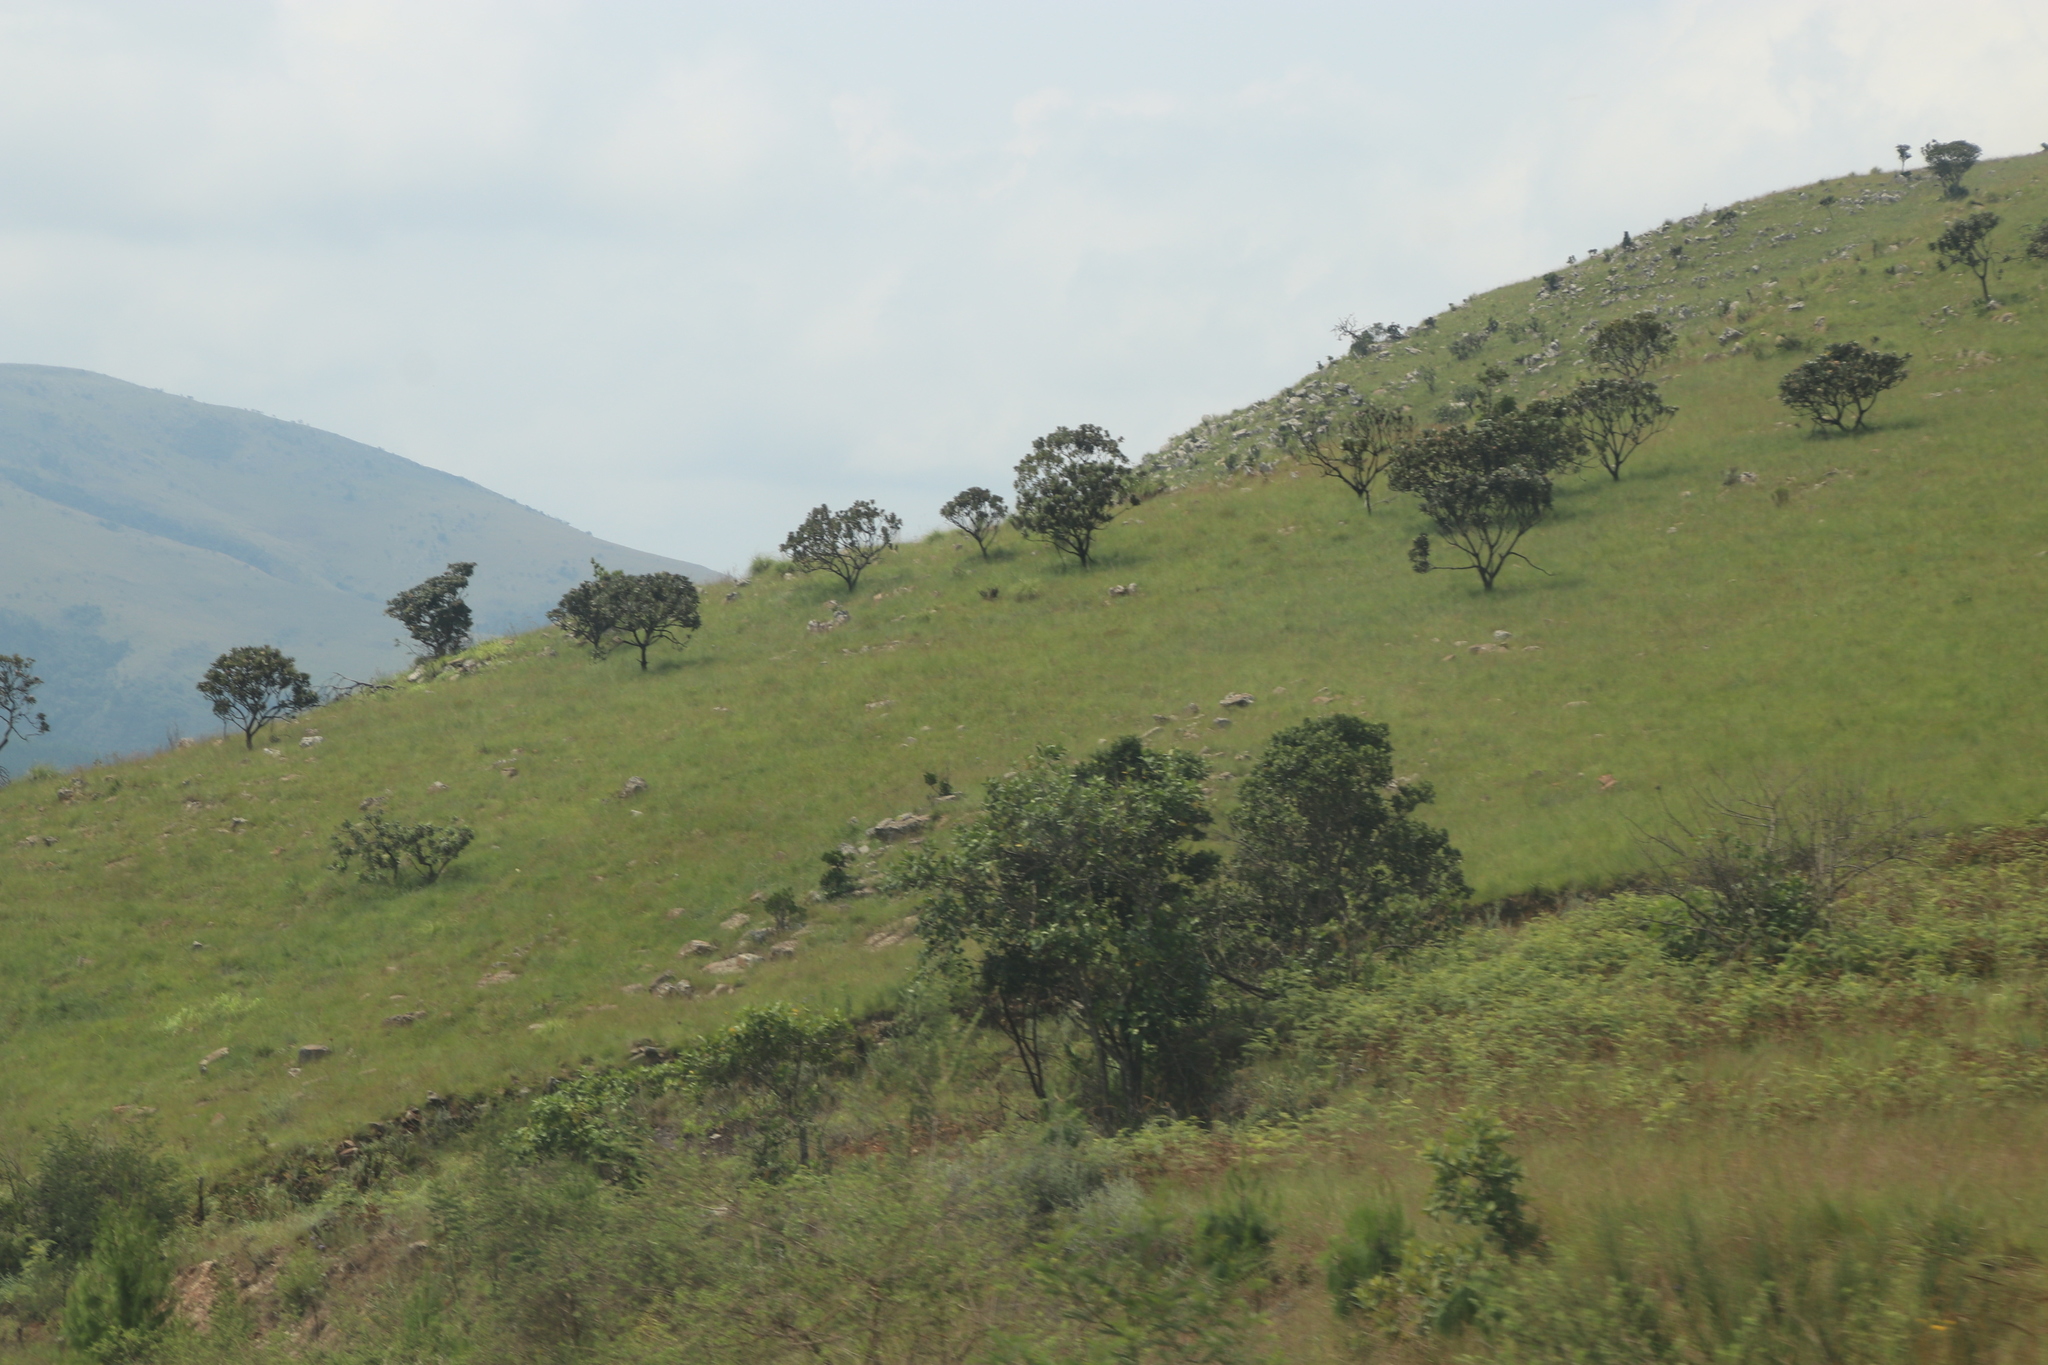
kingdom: Plantae
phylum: Tracheophyta
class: Magnoliopsida
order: Proteales
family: Proteaceae
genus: Protea
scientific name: Protea roupelliae
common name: Silver sugarbush
